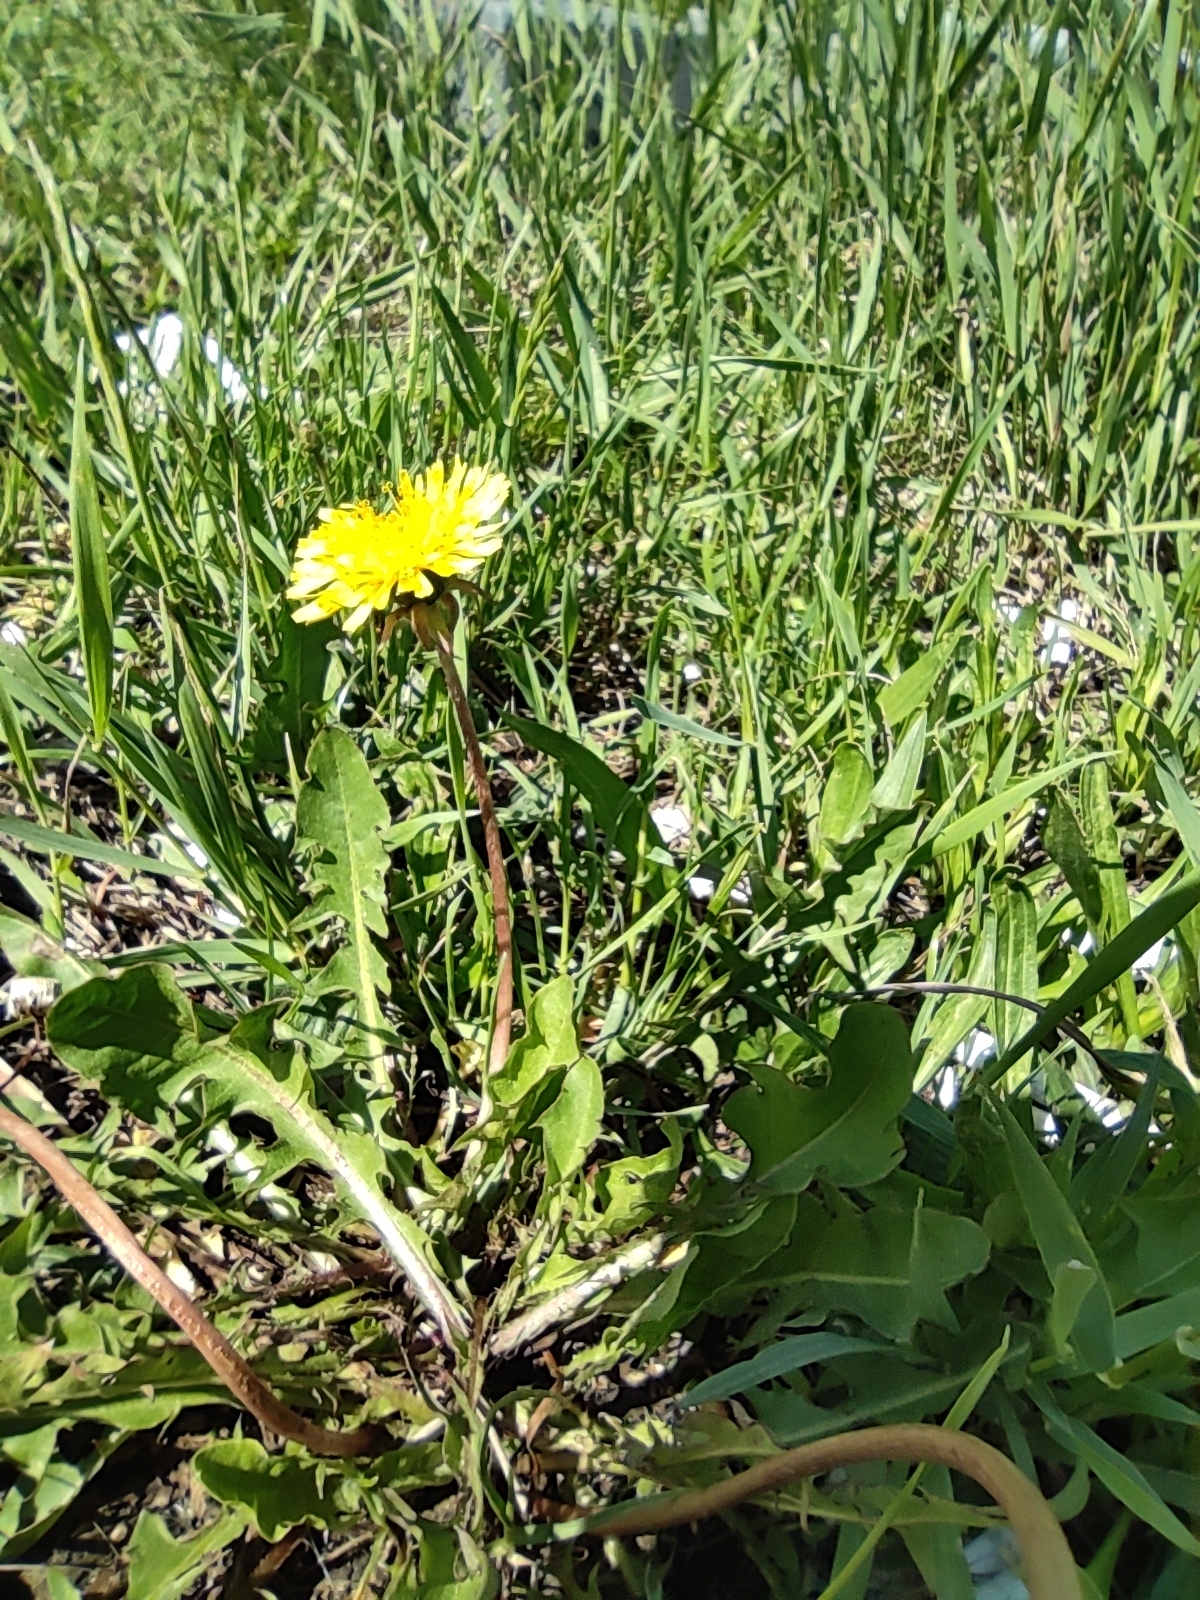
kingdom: Plantae
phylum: Tracheophyta
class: Magnoliopsida
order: Asterales
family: Asteraceae
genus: Taraxacum
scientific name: Taraxacum officinale
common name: Common dandelion
